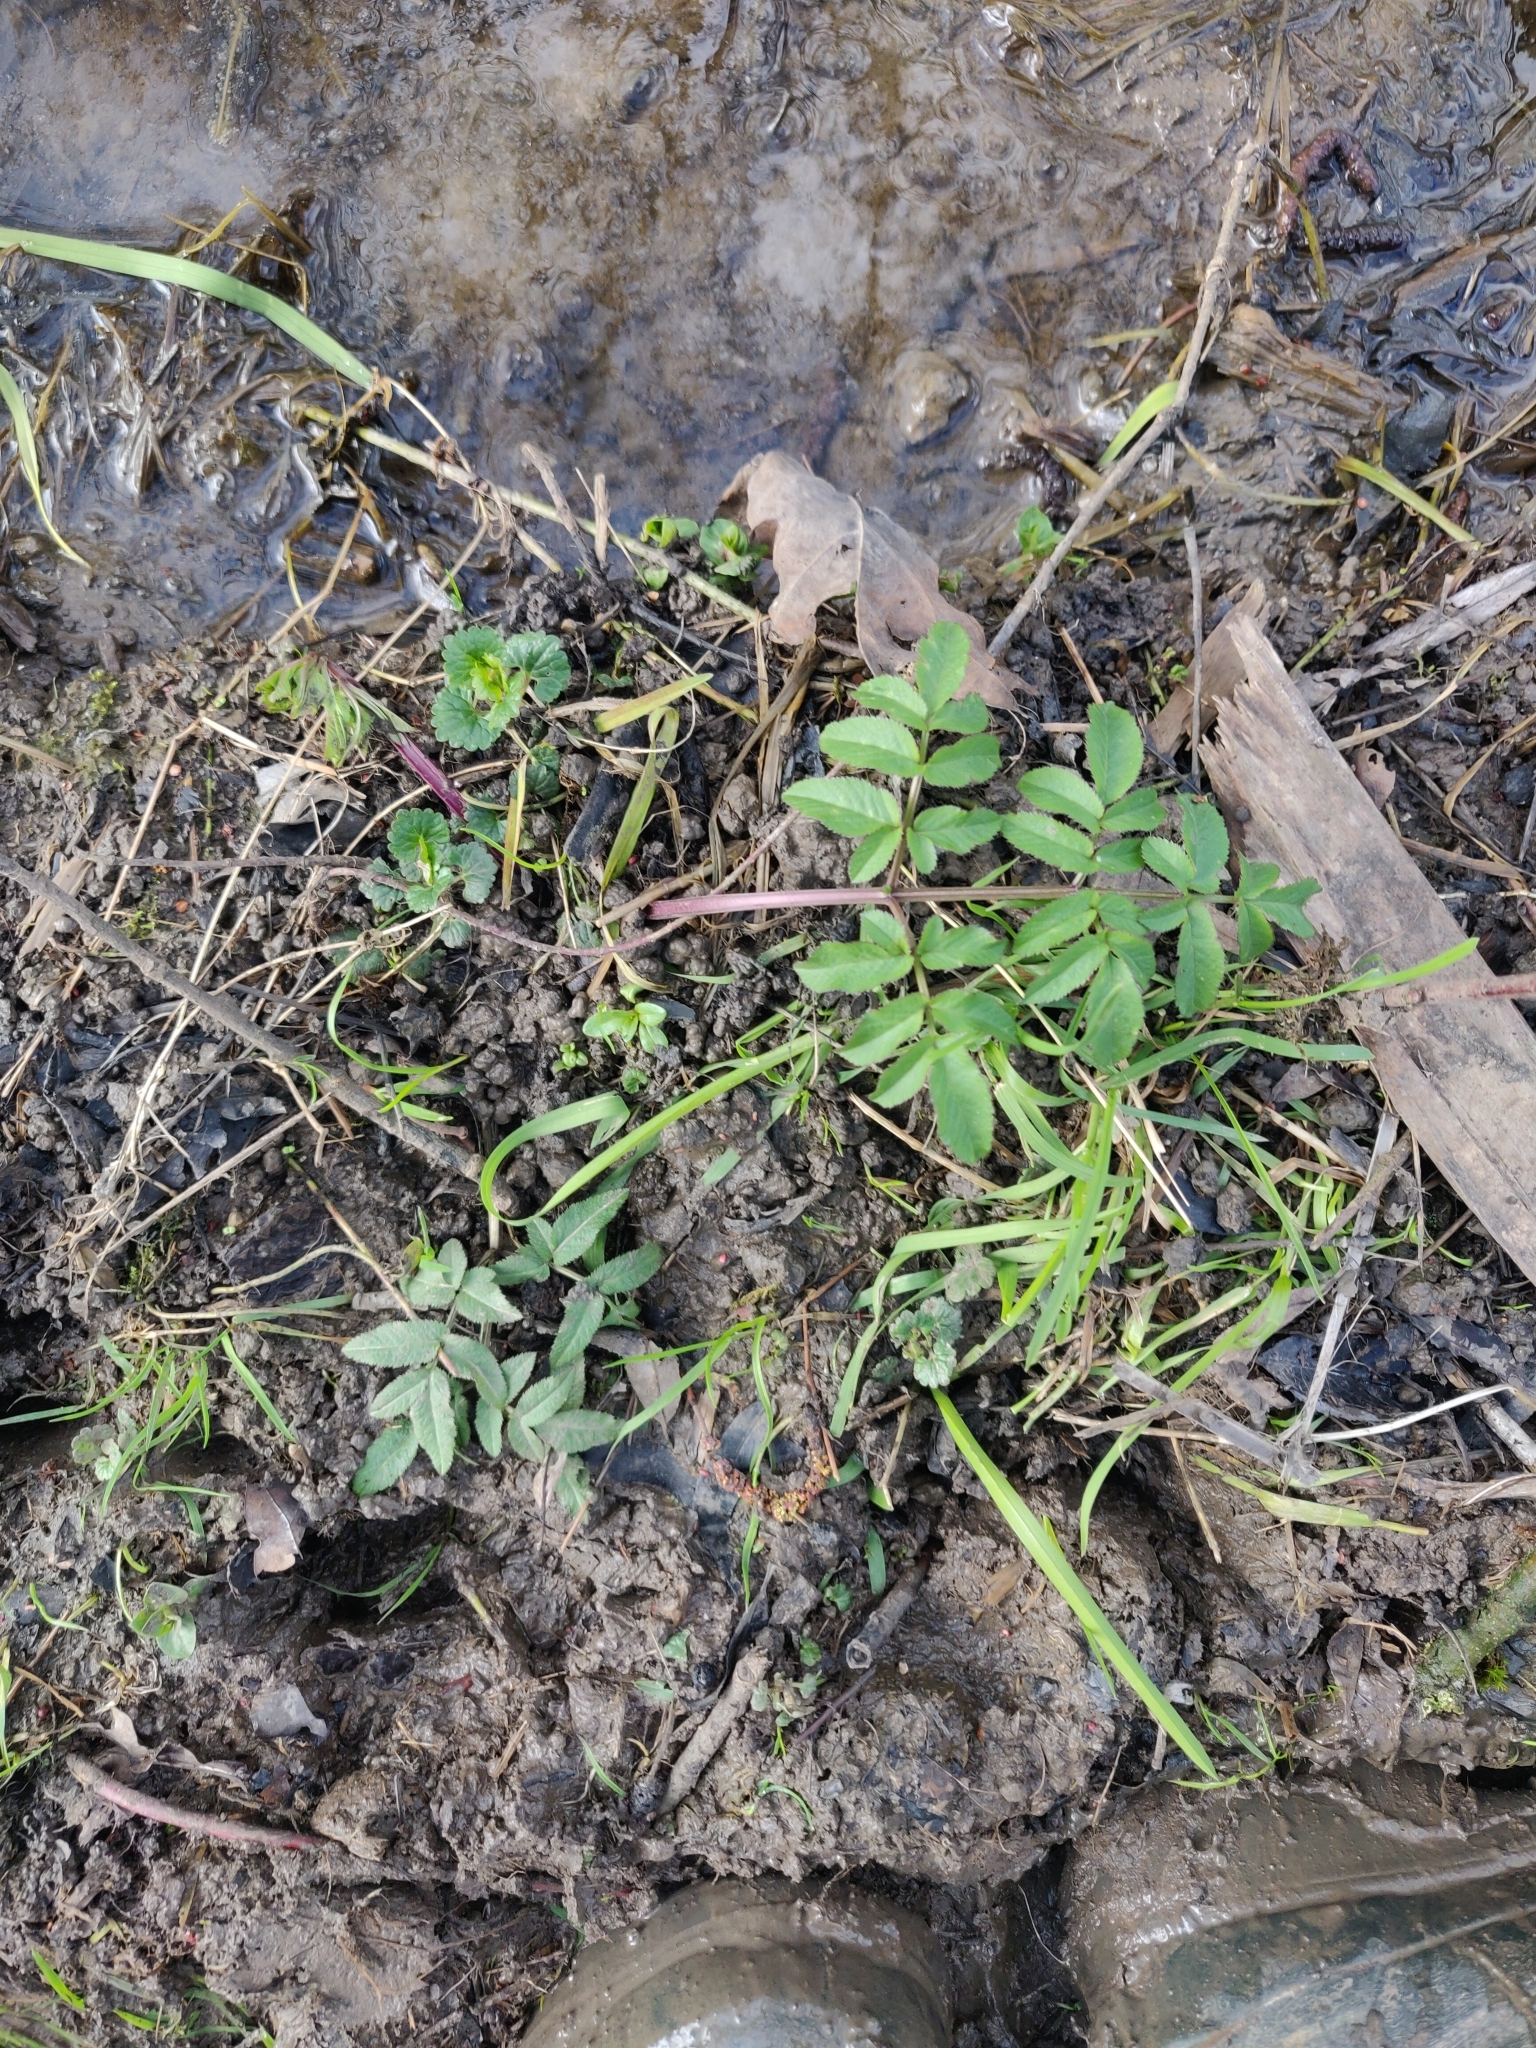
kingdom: Plantae
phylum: Tracheophyta
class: Magnoliopsida
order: Apiales
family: Apiaceae
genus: Angelica
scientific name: Angelica sylvestris
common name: Wild angelica
